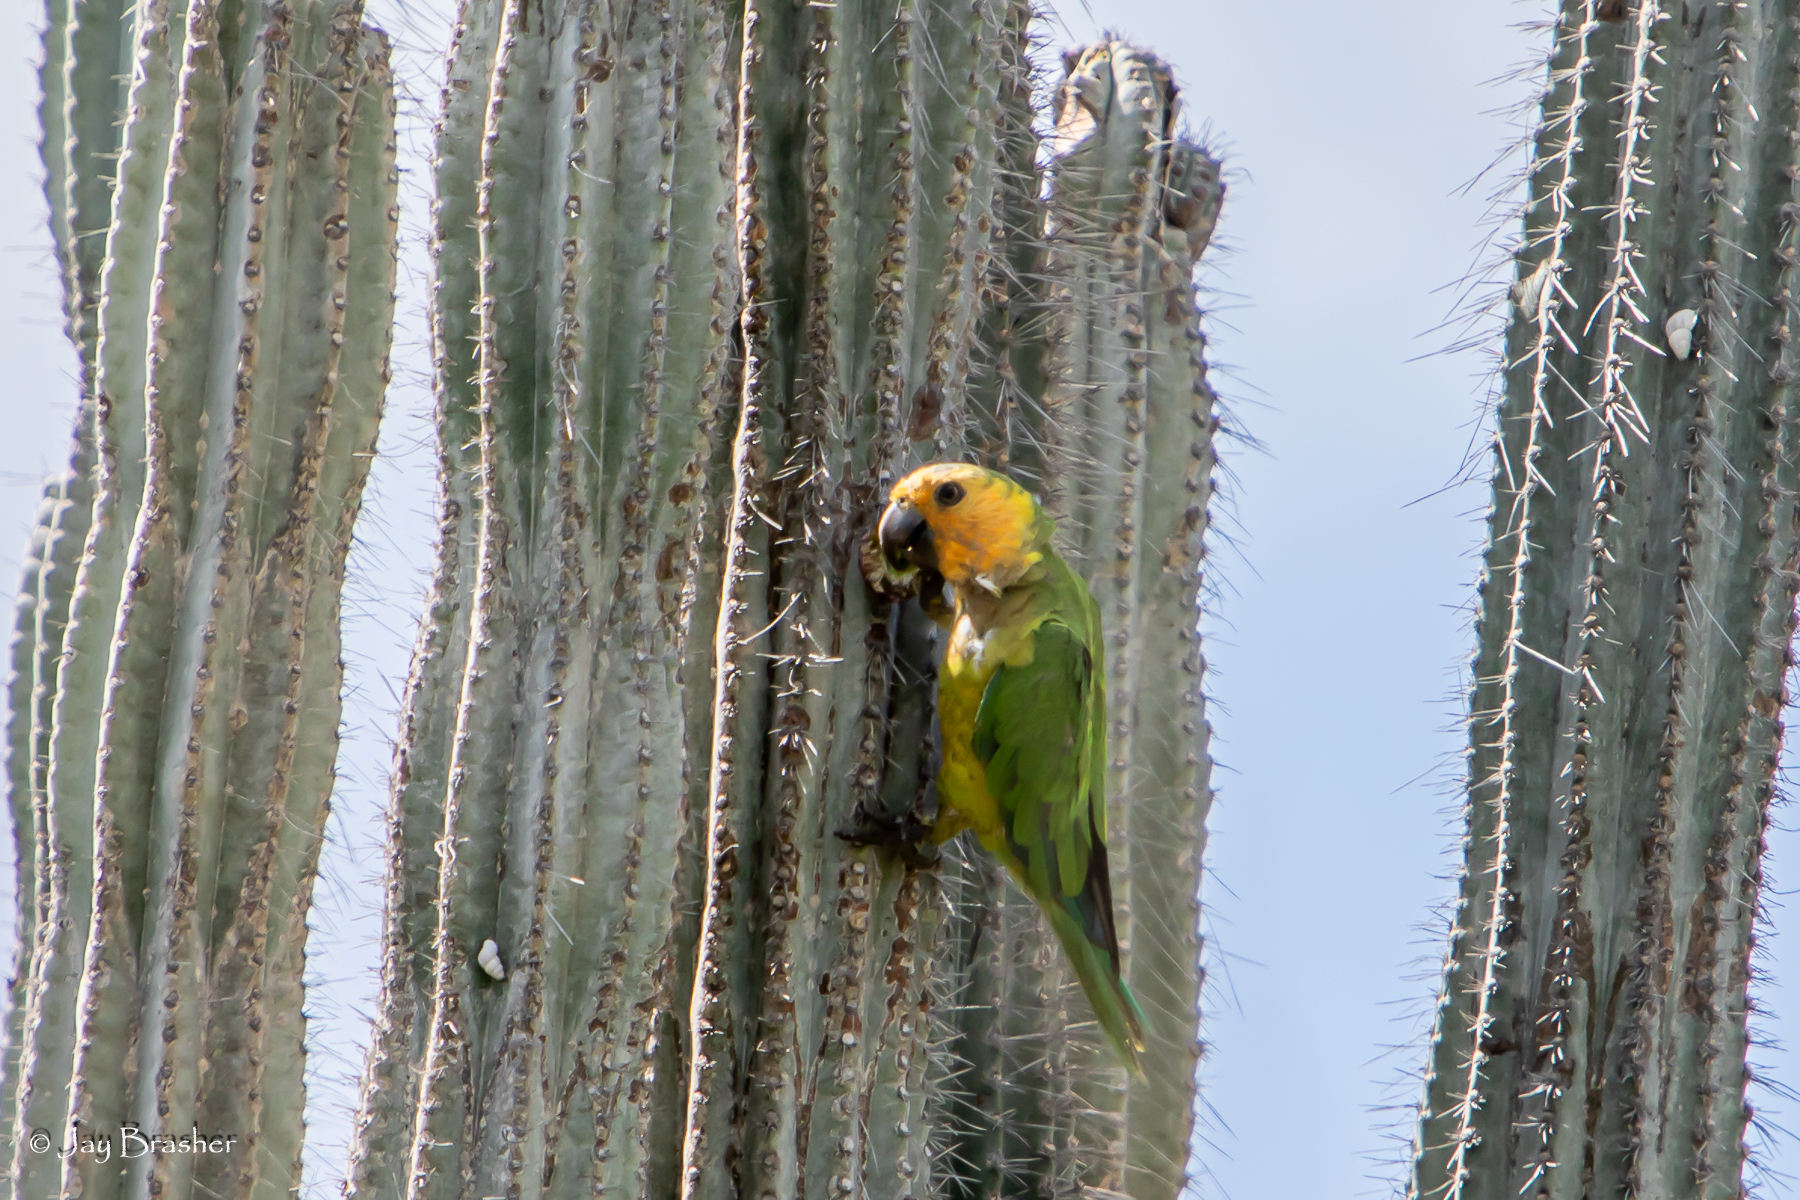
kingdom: Animalia
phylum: Chordata
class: Aves
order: Psittaciformes
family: Psittacidae
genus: Aratinga
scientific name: Aratinga pertinax
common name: Brown-throated parakeet
